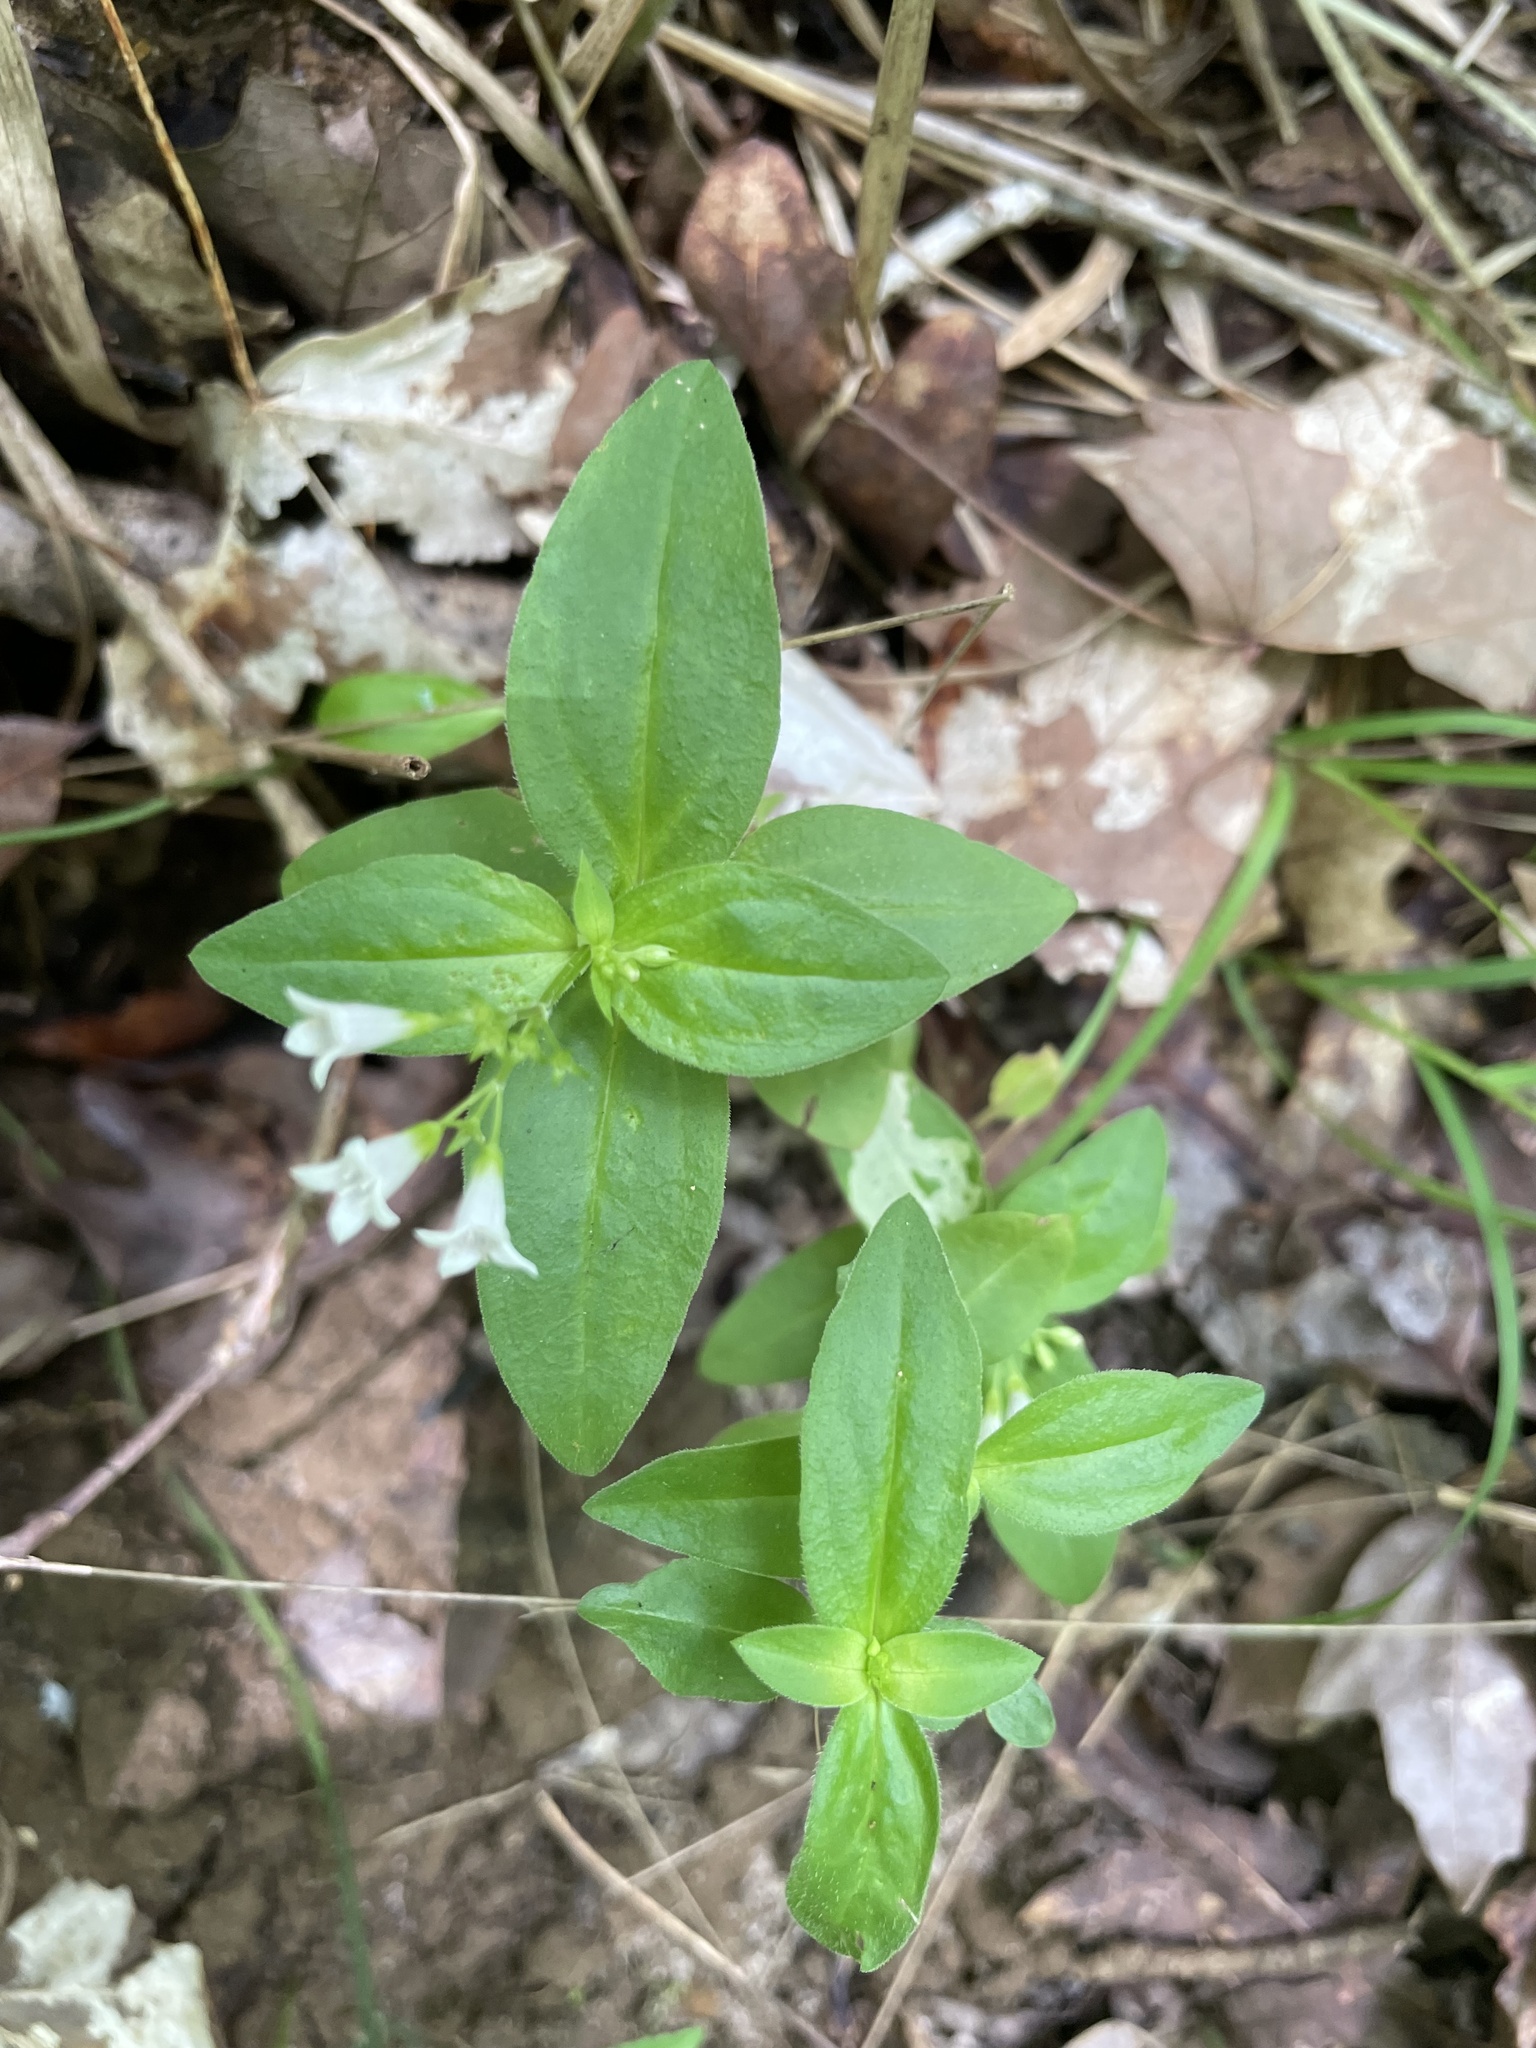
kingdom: Plantae
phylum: Tracheophyta
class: Magnoliopsida
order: Gentianales
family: Rubiaceae
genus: Houstonia
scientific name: Houstonia purpurea
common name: Summer bluet
